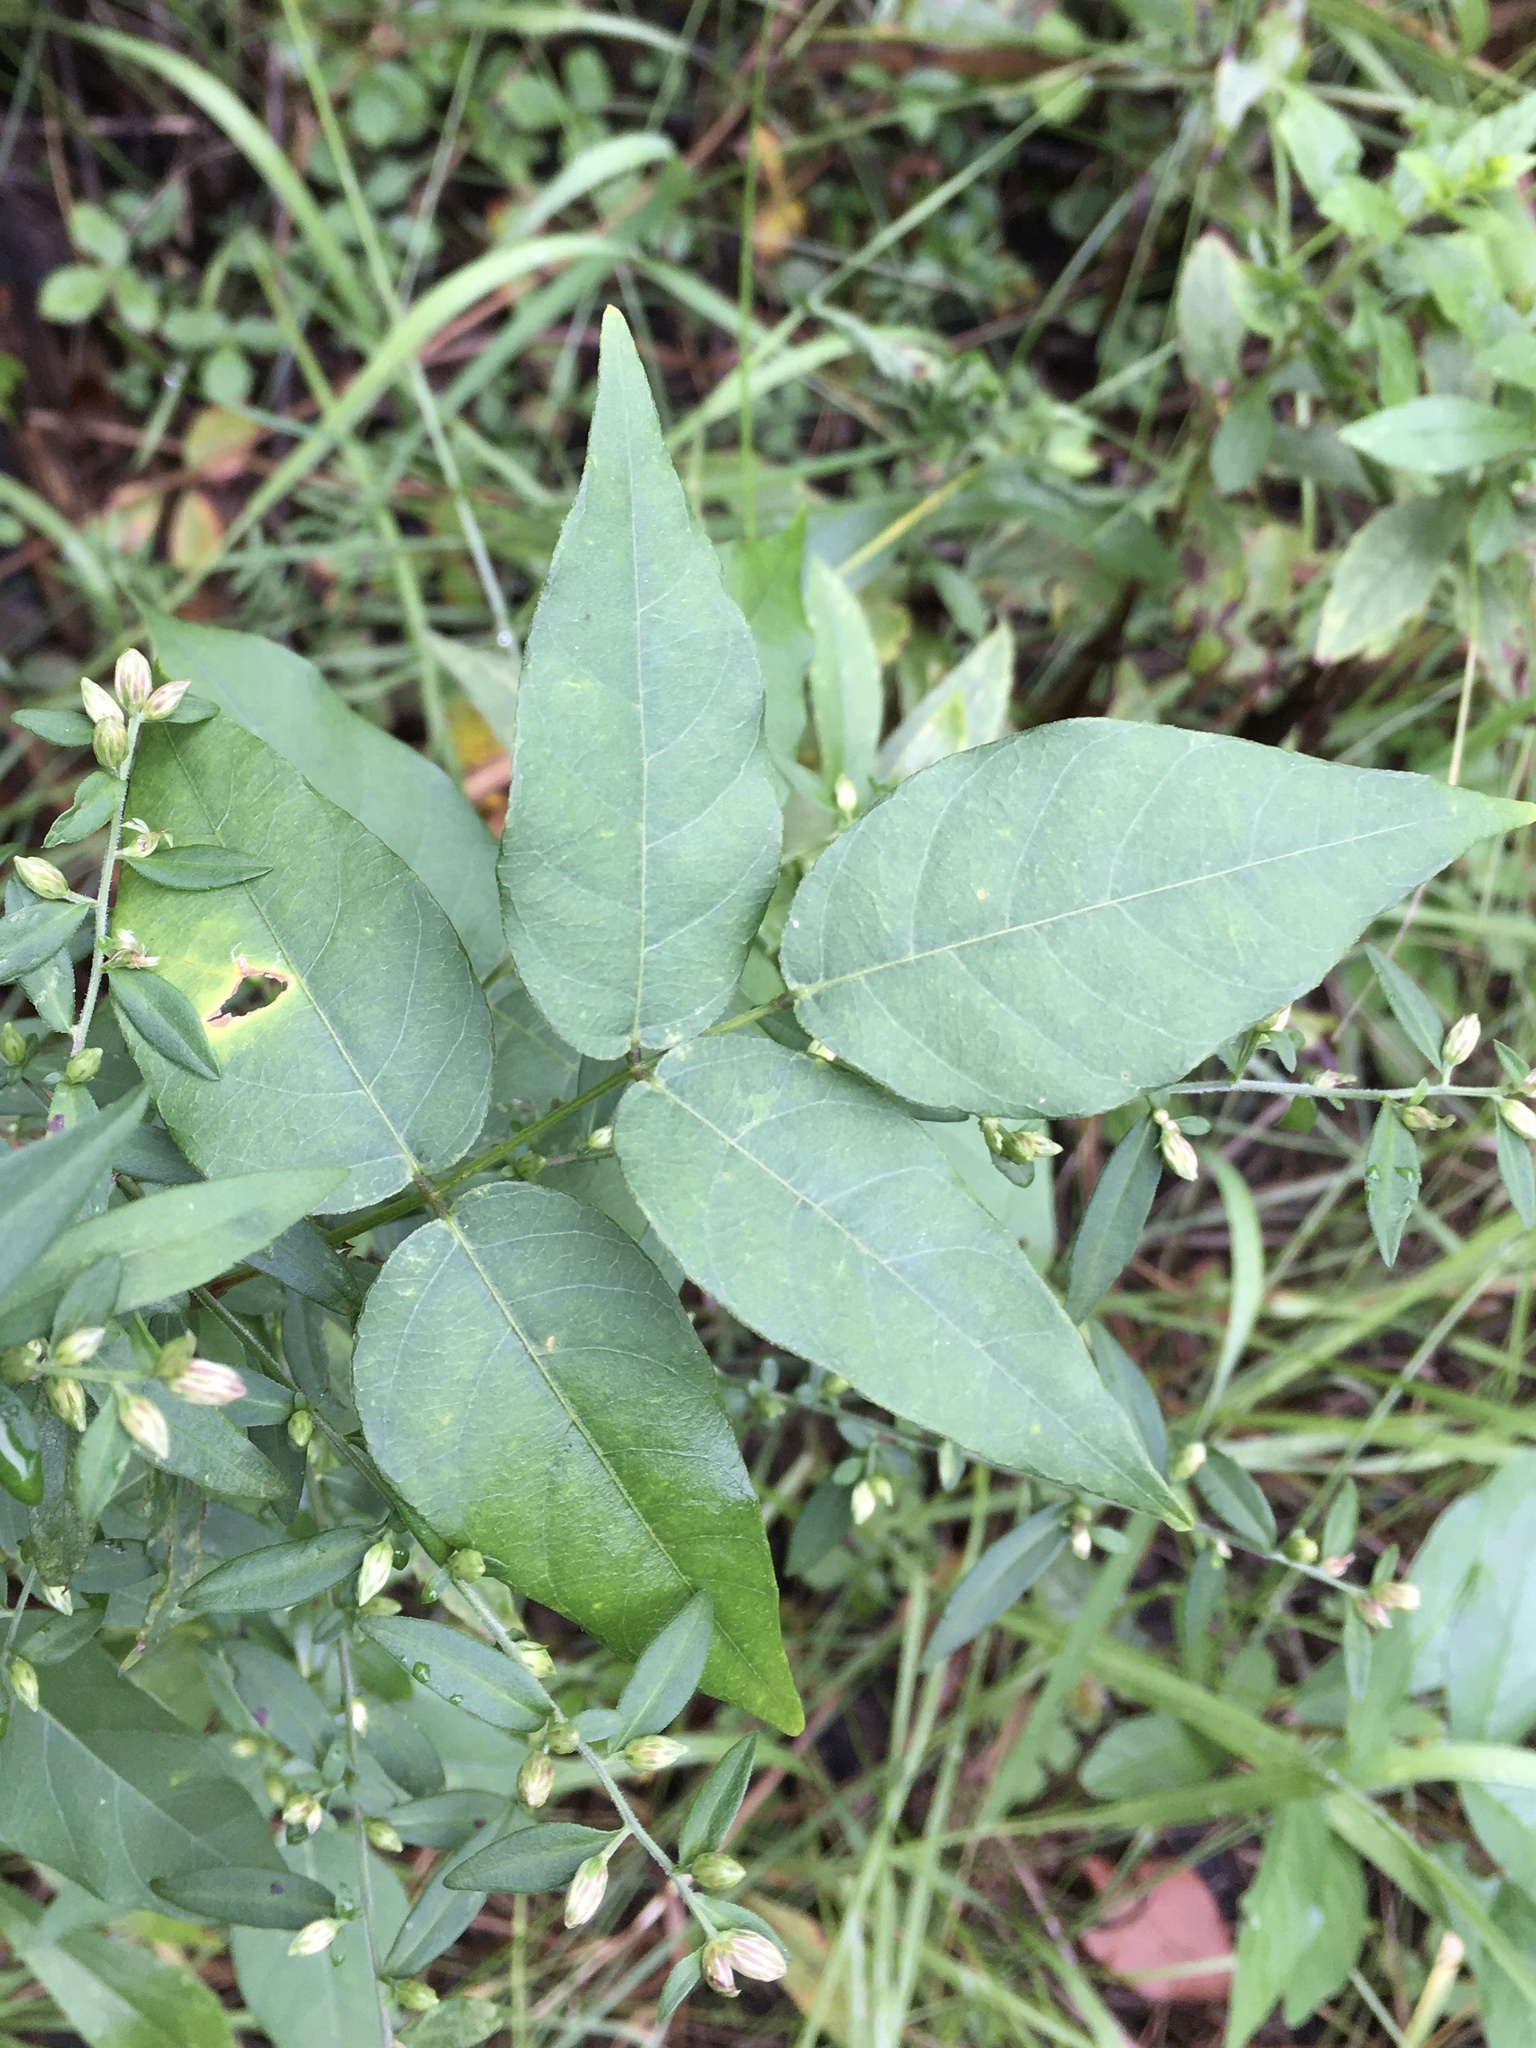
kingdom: Plantae
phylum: Tracheophyta
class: Magnoliopsida
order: Fabales
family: Fabaceae
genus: Apios
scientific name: Apios americana
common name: American potato-bean
